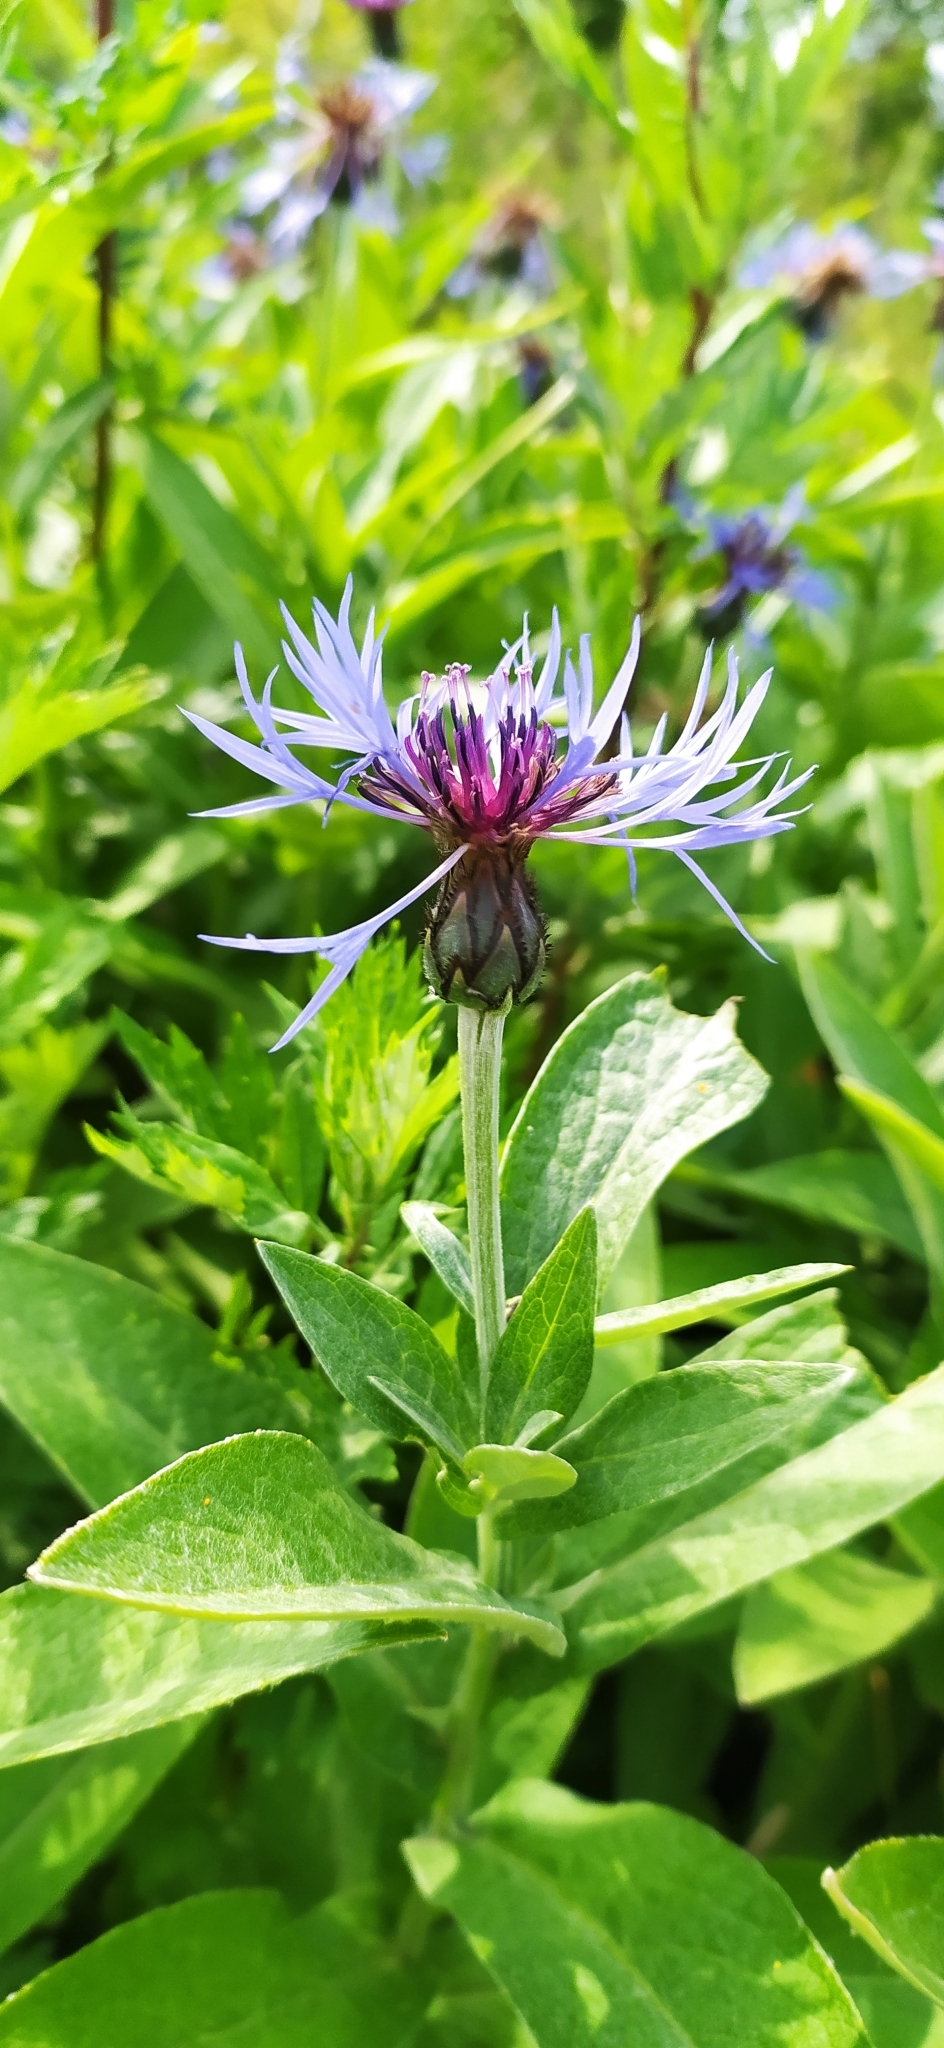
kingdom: Plantae
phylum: Tracheophyta
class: Magnoliopsida
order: Asterales
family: Asteraceae
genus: Centaurea
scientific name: Centaurea montana
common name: Perennial cornflower
